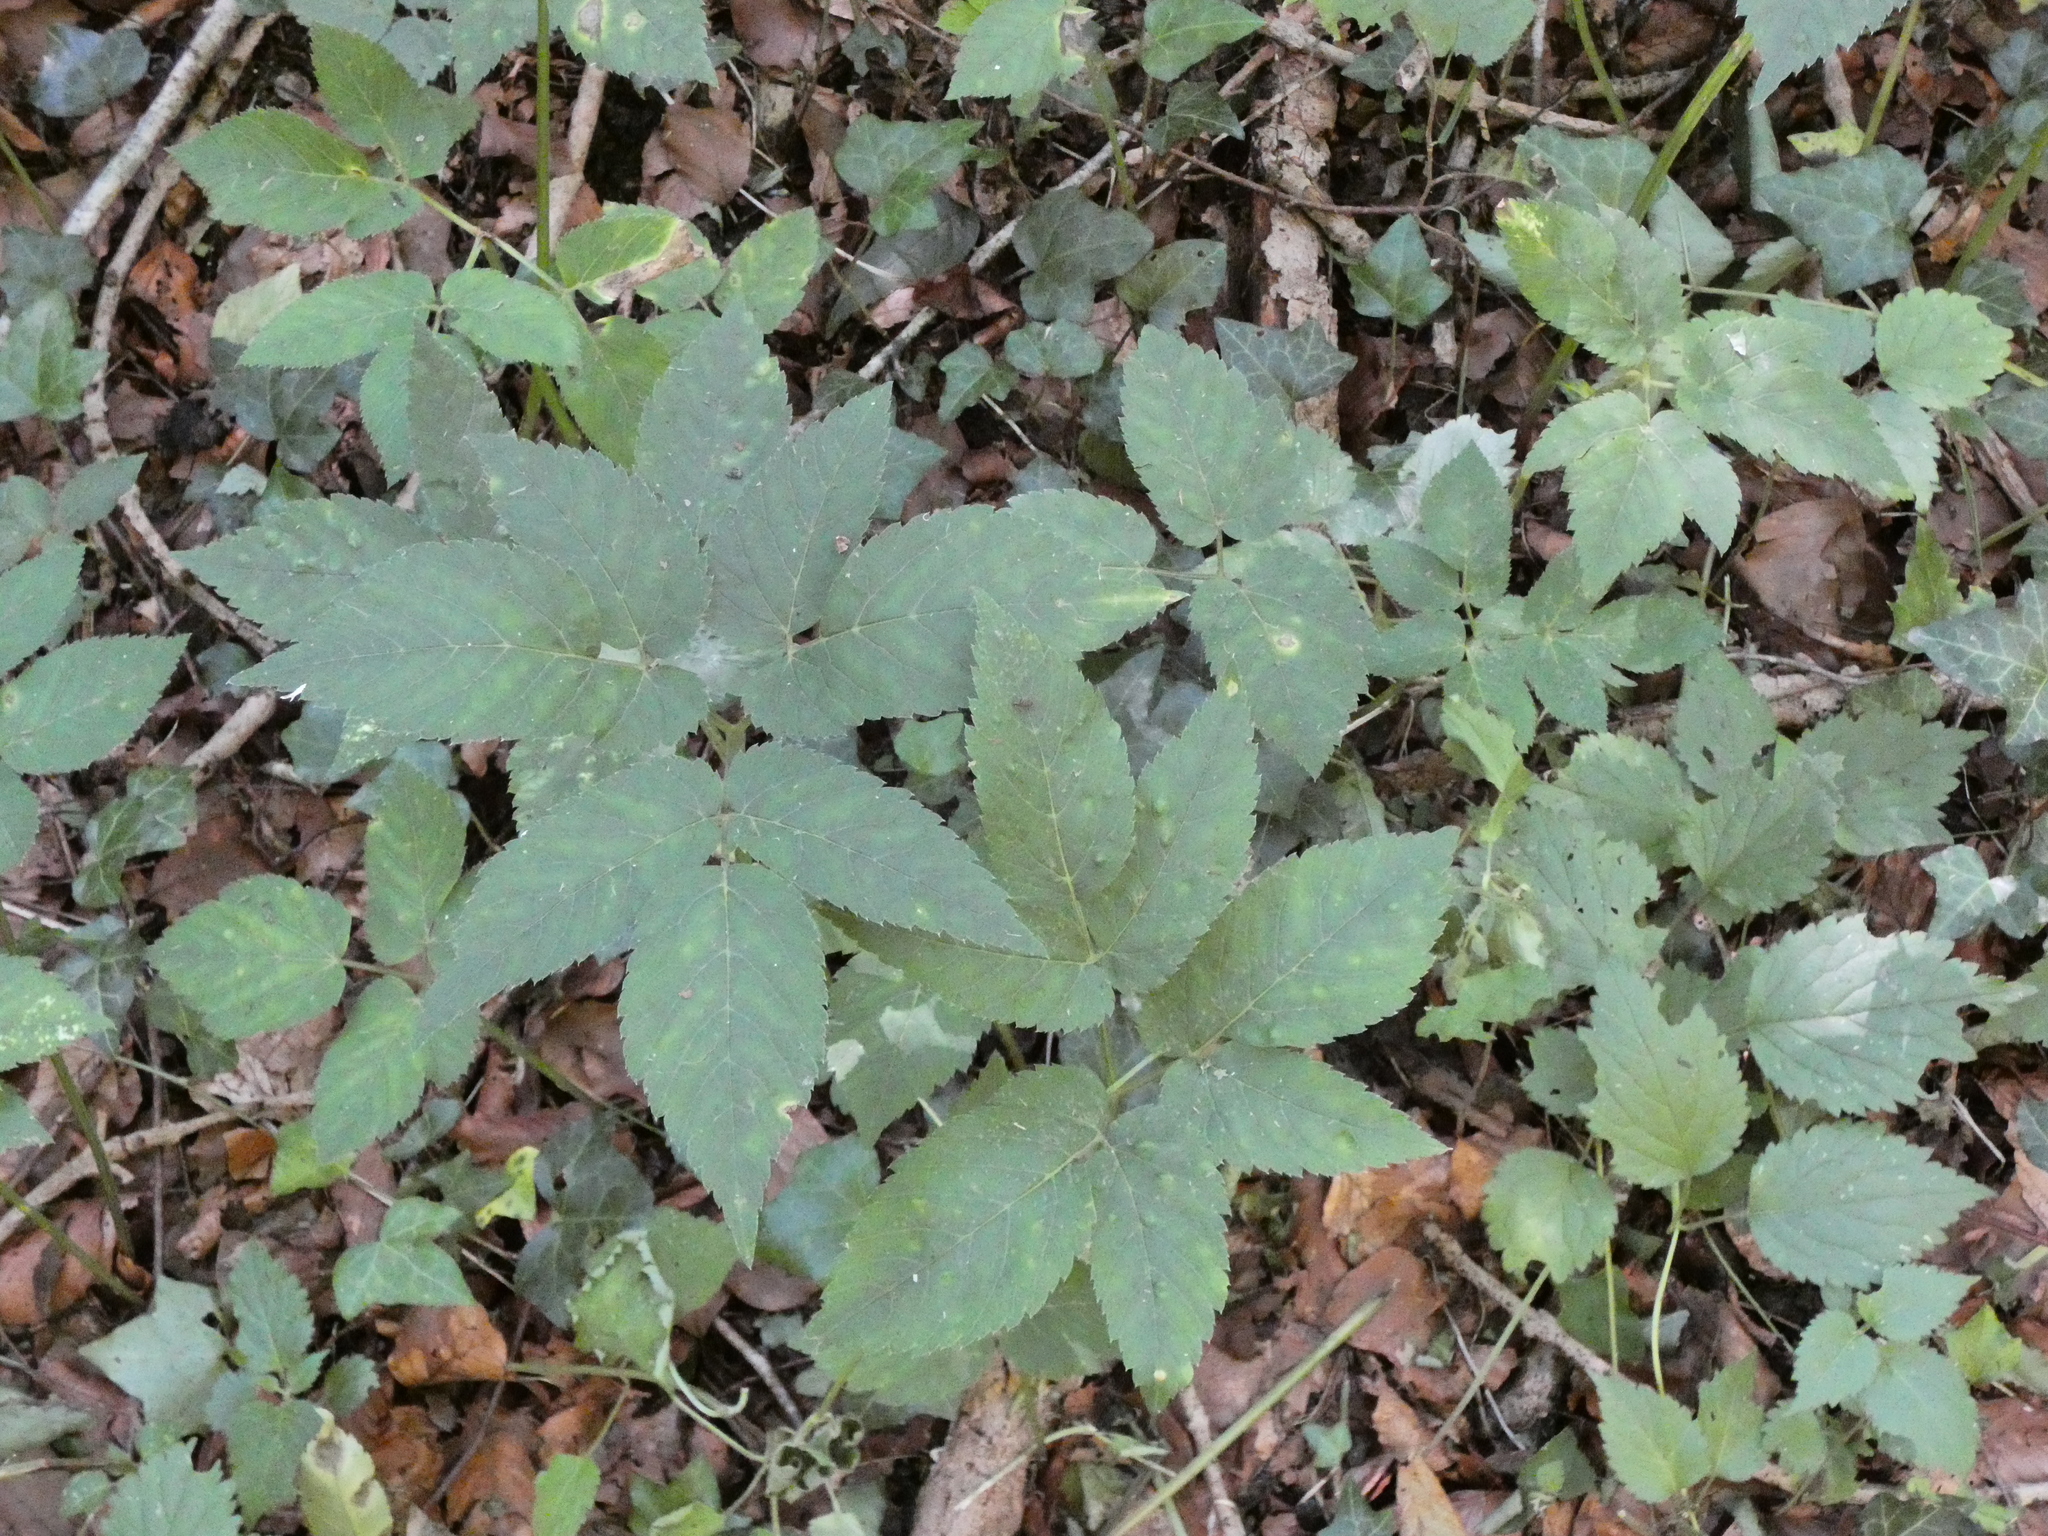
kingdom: Plantae
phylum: Tracheophyta
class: Magnoliopsida
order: Apiales
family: Apiaceae
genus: Aegopodium
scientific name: Aegopodium podagraria
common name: Ground-elder
